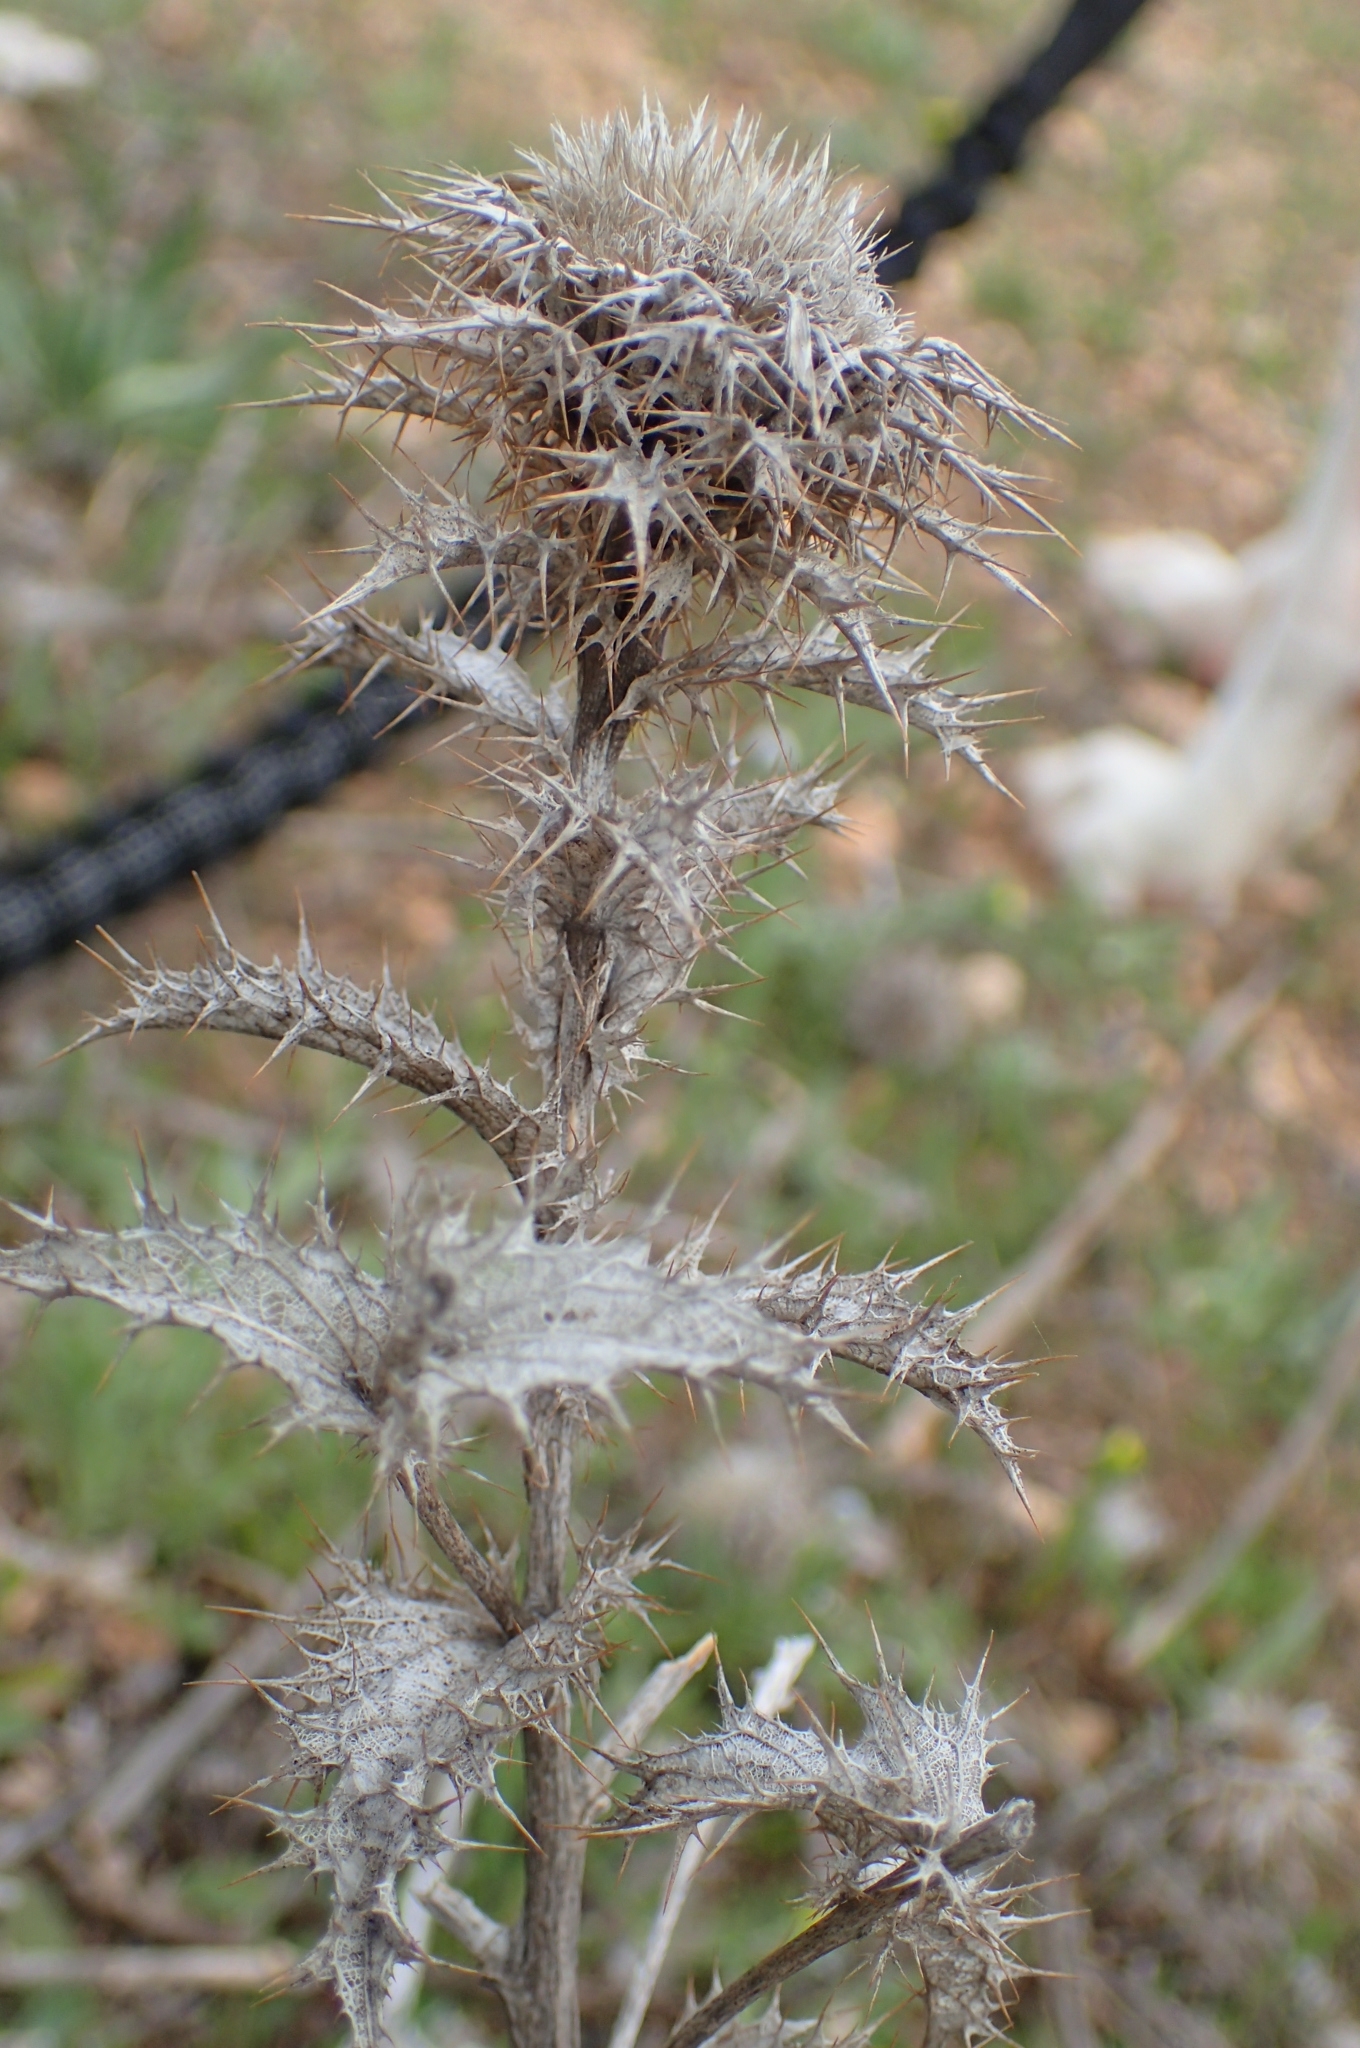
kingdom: Plantae
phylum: Tracheophyta
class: Magnoliopsida
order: Asterales
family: Asteraceae
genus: Carlina
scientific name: Carlina hispanica
